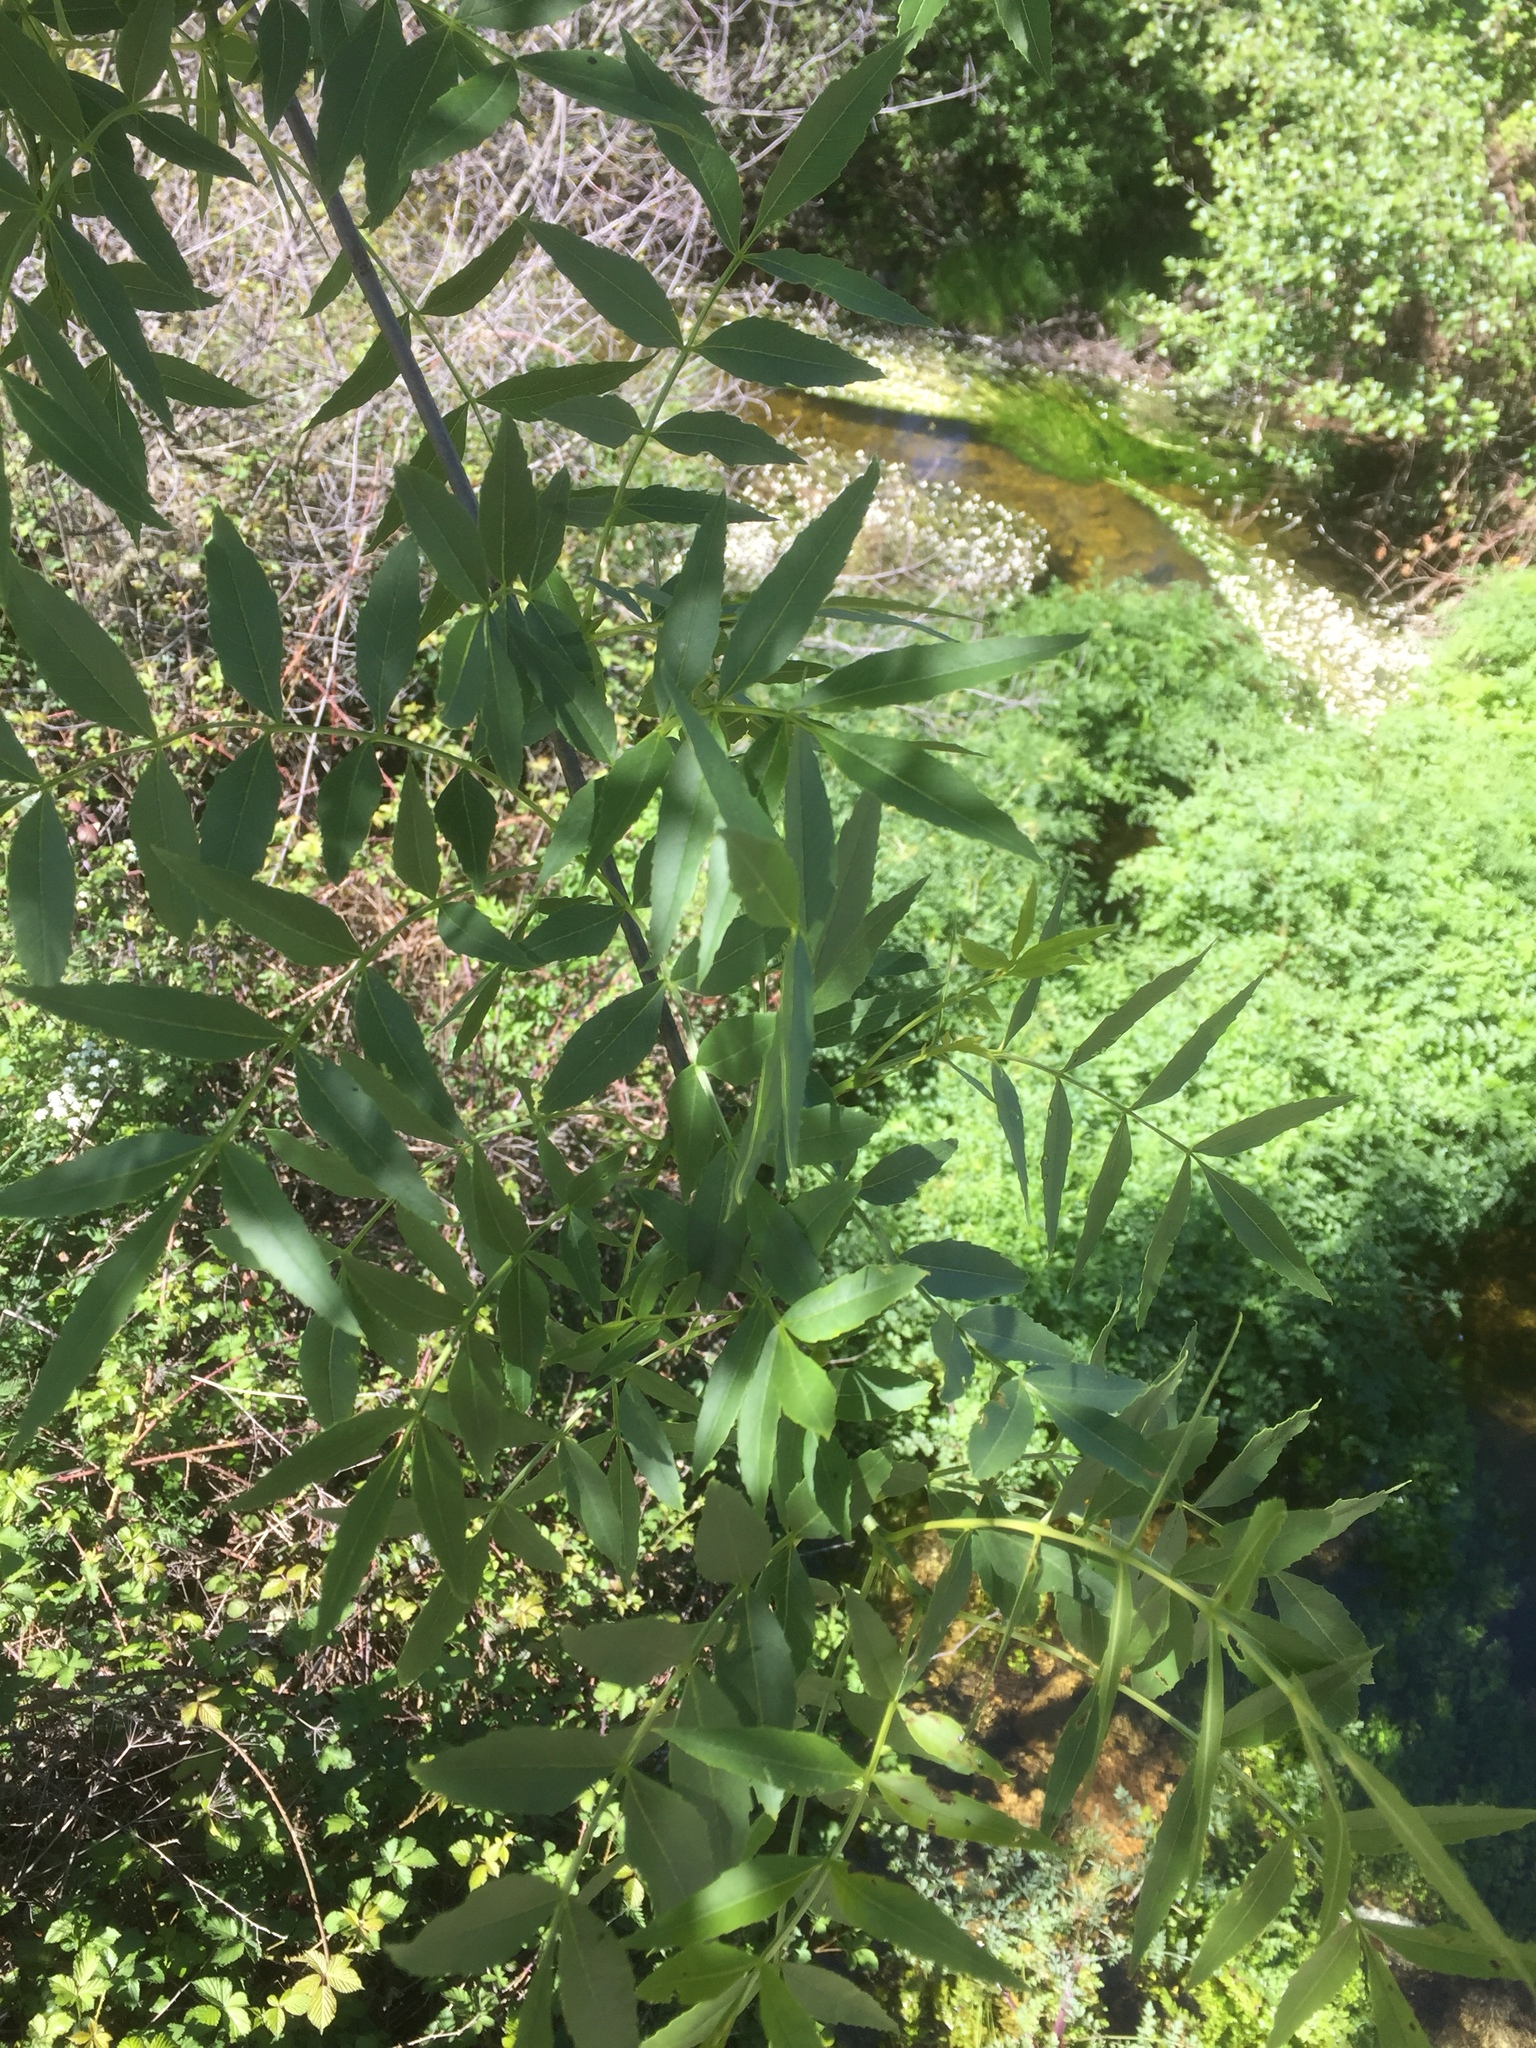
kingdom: Plantae
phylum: Tracheophyta
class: Magnoliopsida
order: Lamiales
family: Oleaceae
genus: Fraxinus
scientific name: Fraxinus angustifolia
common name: Narrow-leafed ash
